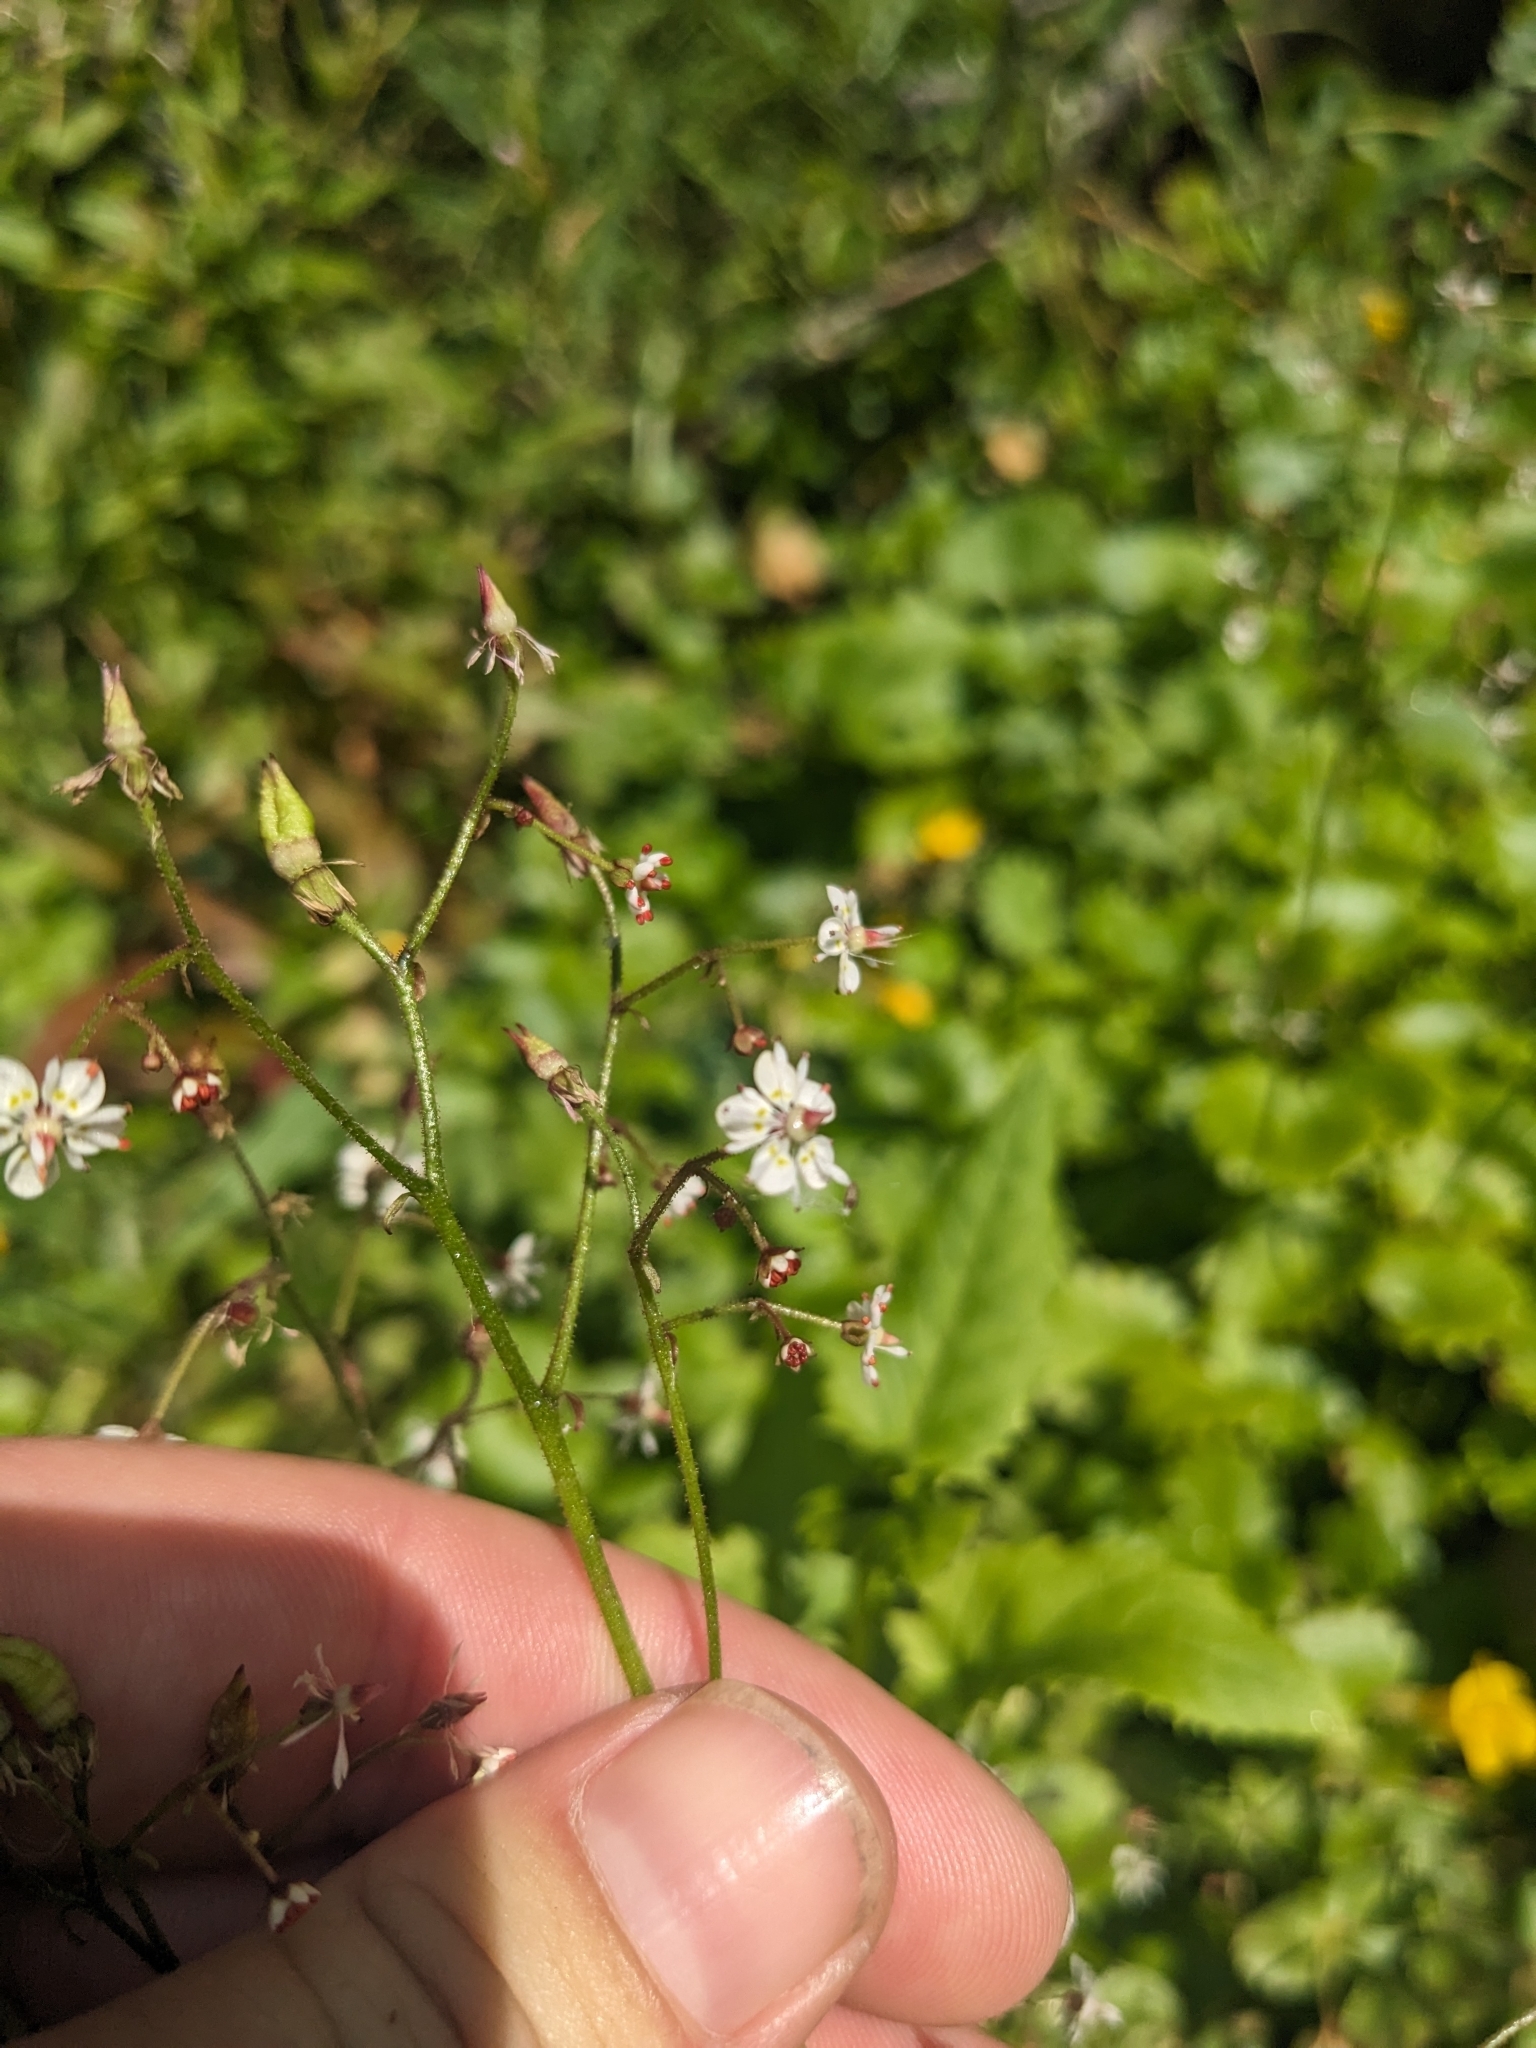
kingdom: Plantae
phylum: Tracheophyta
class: Magnoliopsida
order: Saxifragales
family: Saxifragaceae
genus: Micranthes
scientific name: Micranthes odontoloma
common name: Brook saxifrage
